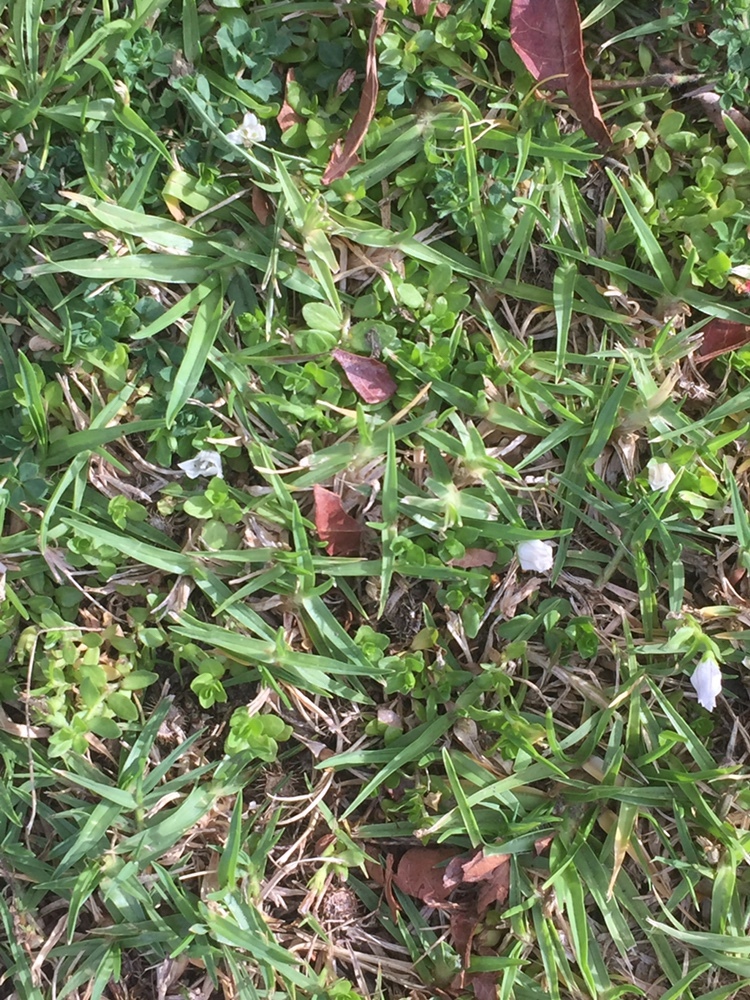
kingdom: Plantae
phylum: Tracheophyta
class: Magnoliopsida
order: Asterales
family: Campanulaceae
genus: Wahlenbergia
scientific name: Wahlenbergia procumbens
